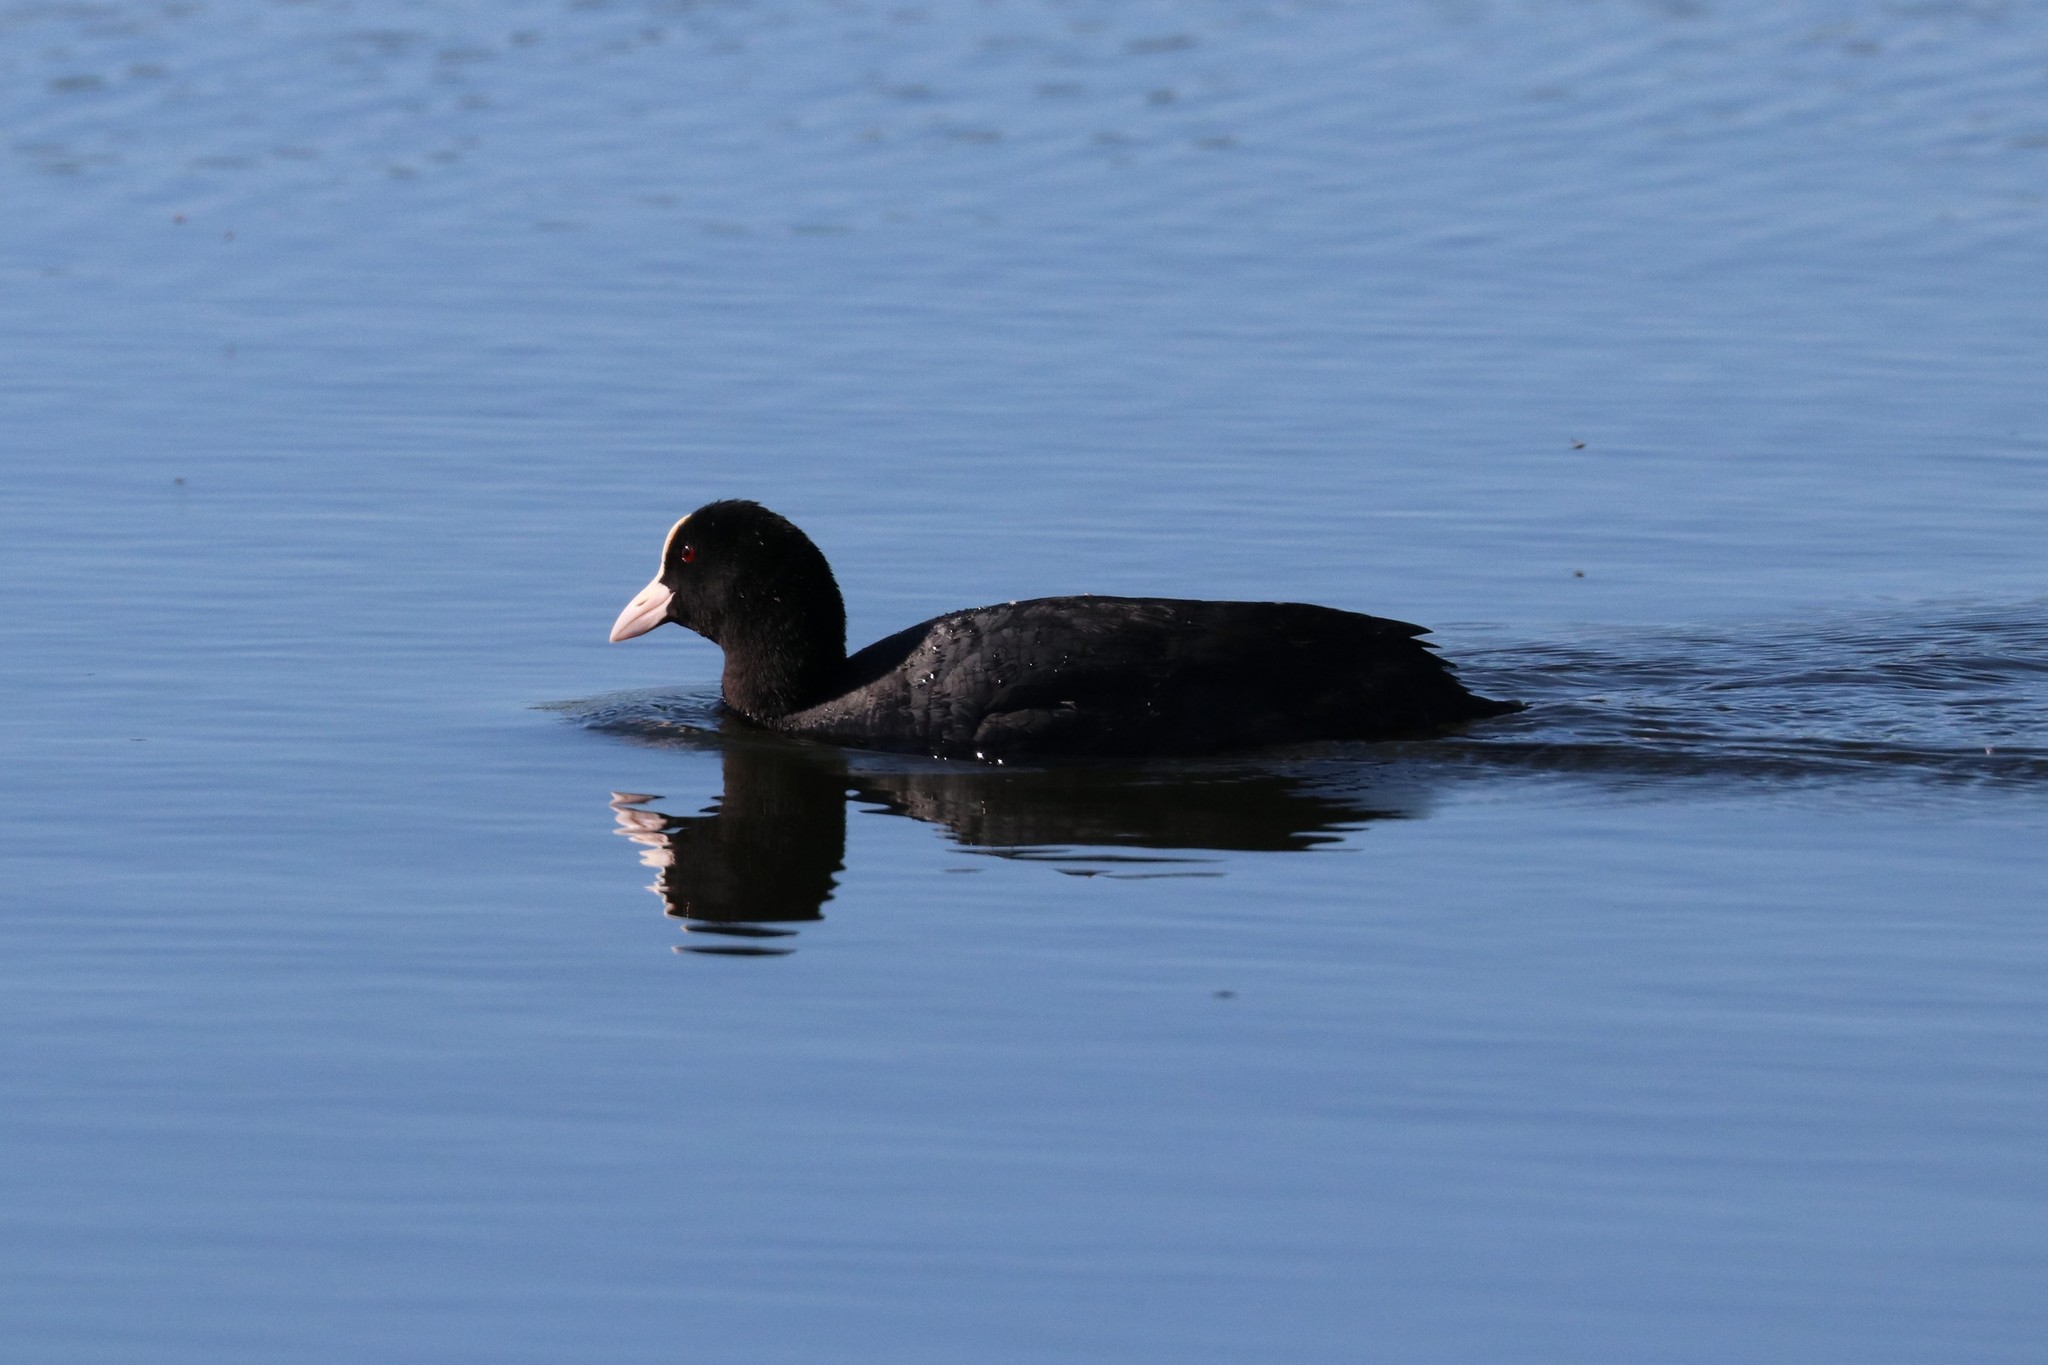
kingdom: Animalia
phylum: Chordata
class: Aves
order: Gruiformes
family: Rallidae
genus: Fulica
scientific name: Fulica atra
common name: Eurasian coot
